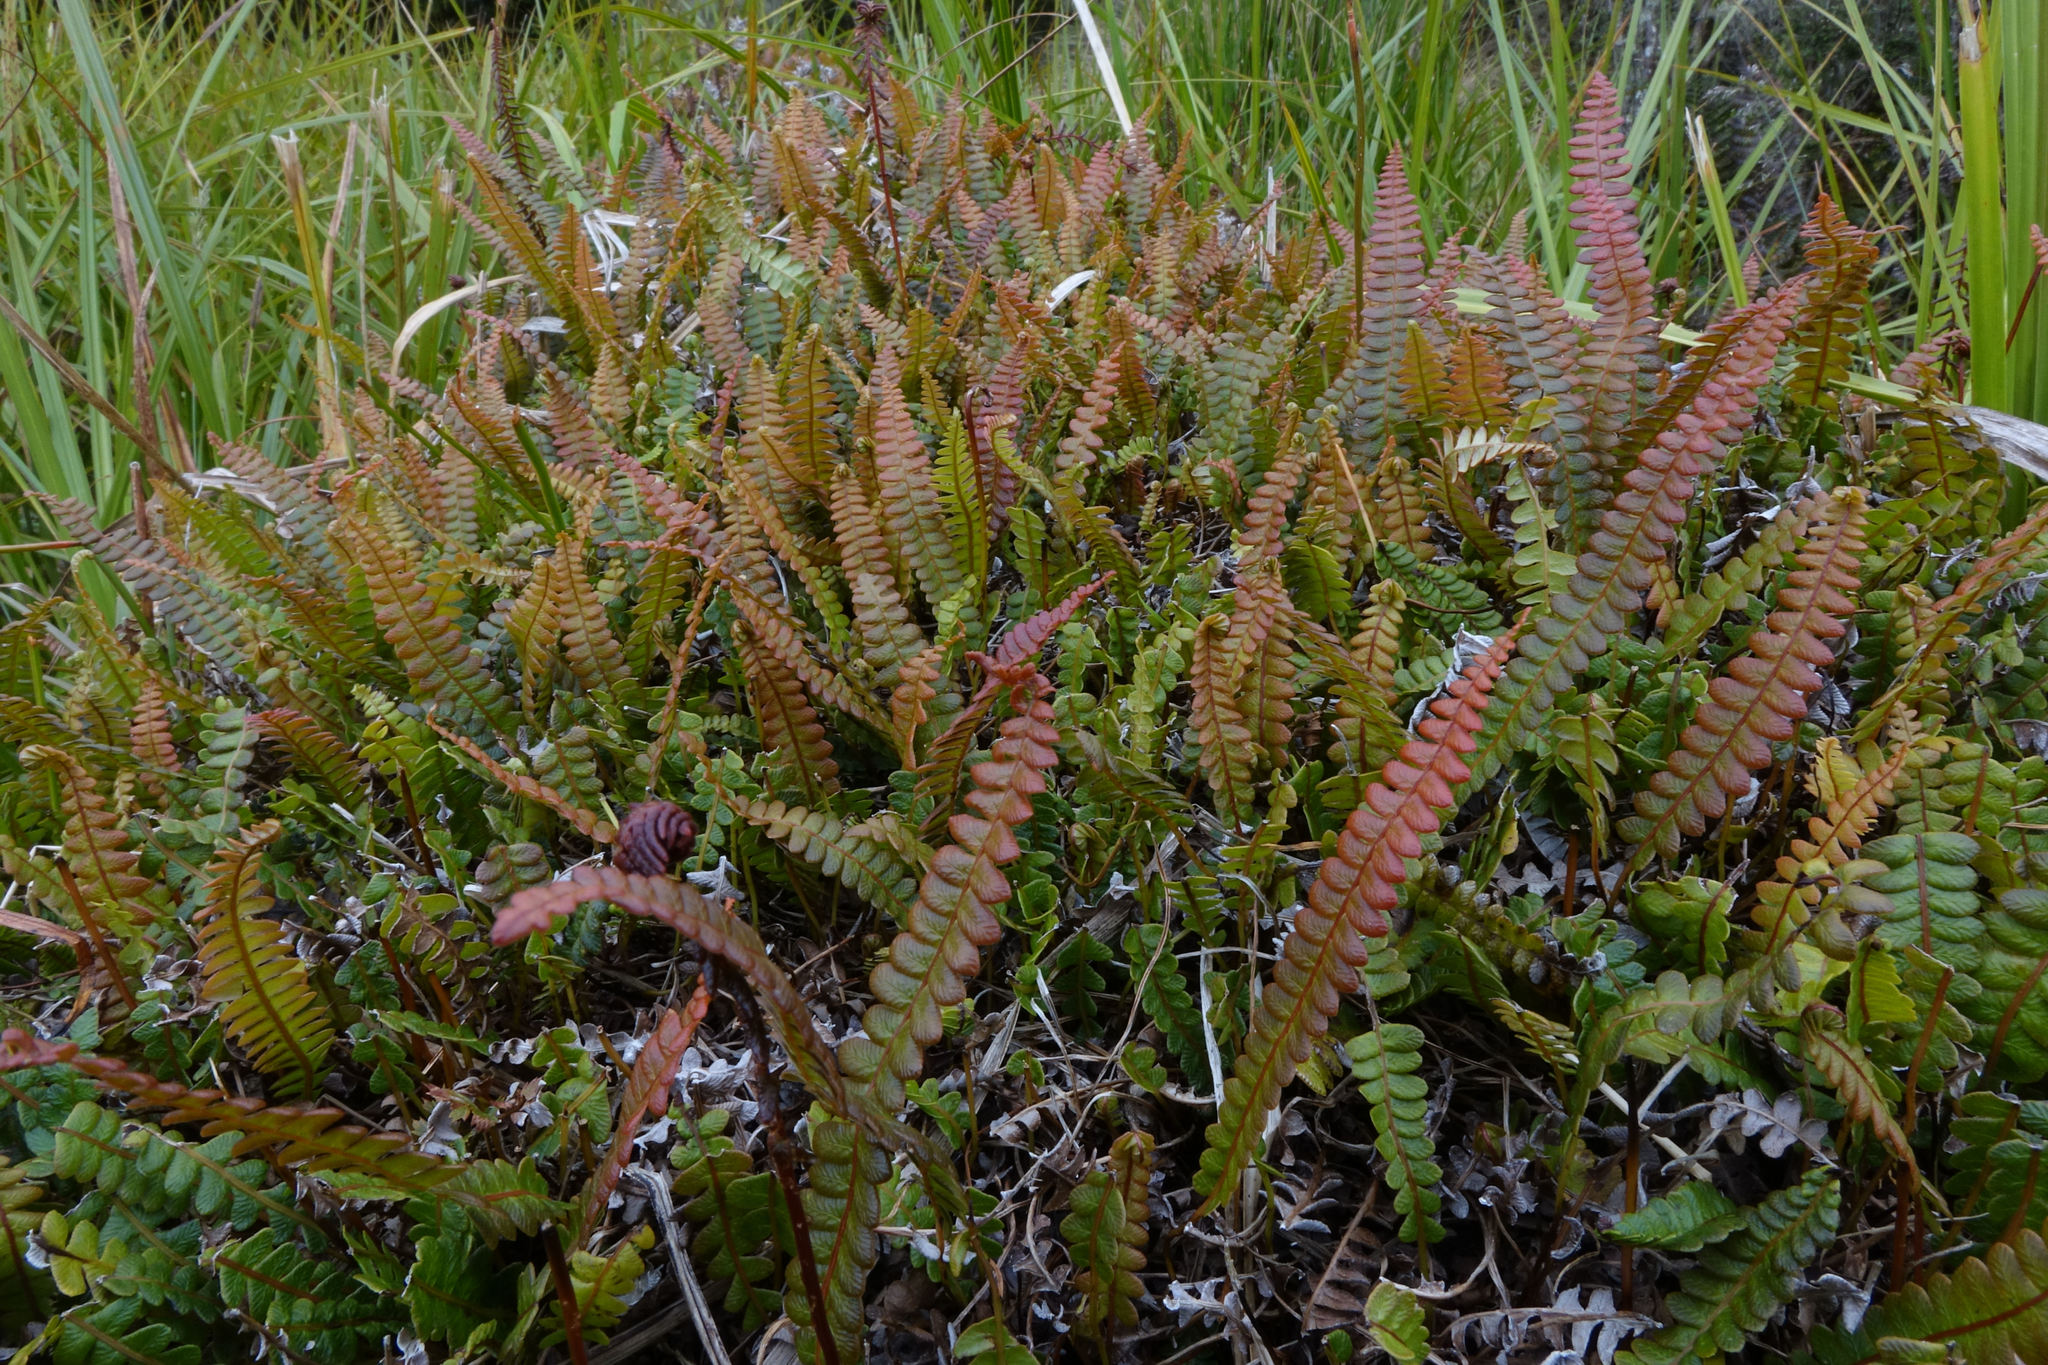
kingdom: Plantae
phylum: Tracheophyta
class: Polypodiopsida
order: Polypodiales
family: Blechnaceae
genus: Austroblechnum
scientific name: Austroblechnum penna-marina
